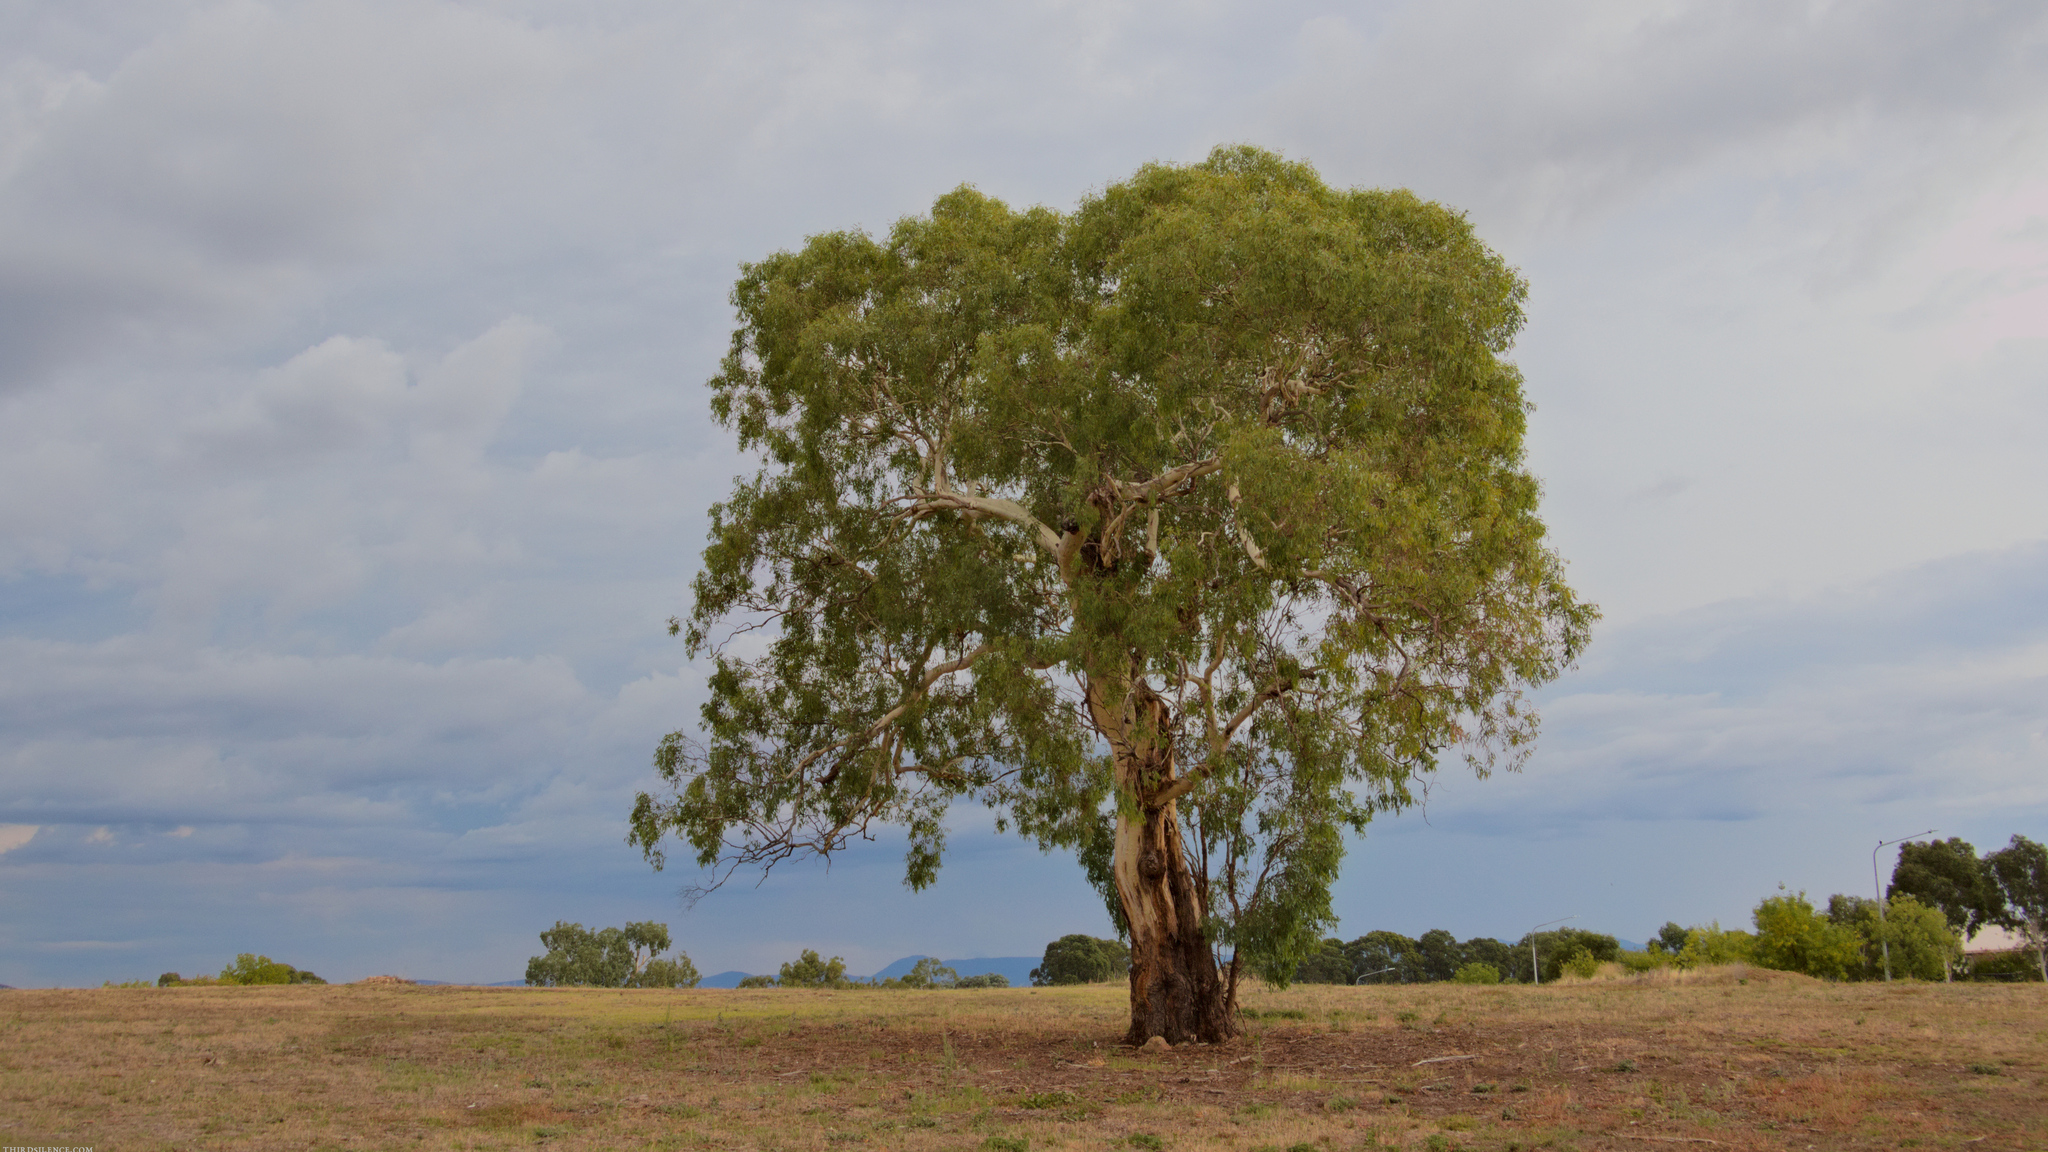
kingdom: Plantae
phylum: Tracheophyta
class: Magnoliopsida
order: Myrtales
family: Myrtaceae
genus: Eucalyptus
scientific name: Eucalyptus melliodora
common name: Yellow ironbox
